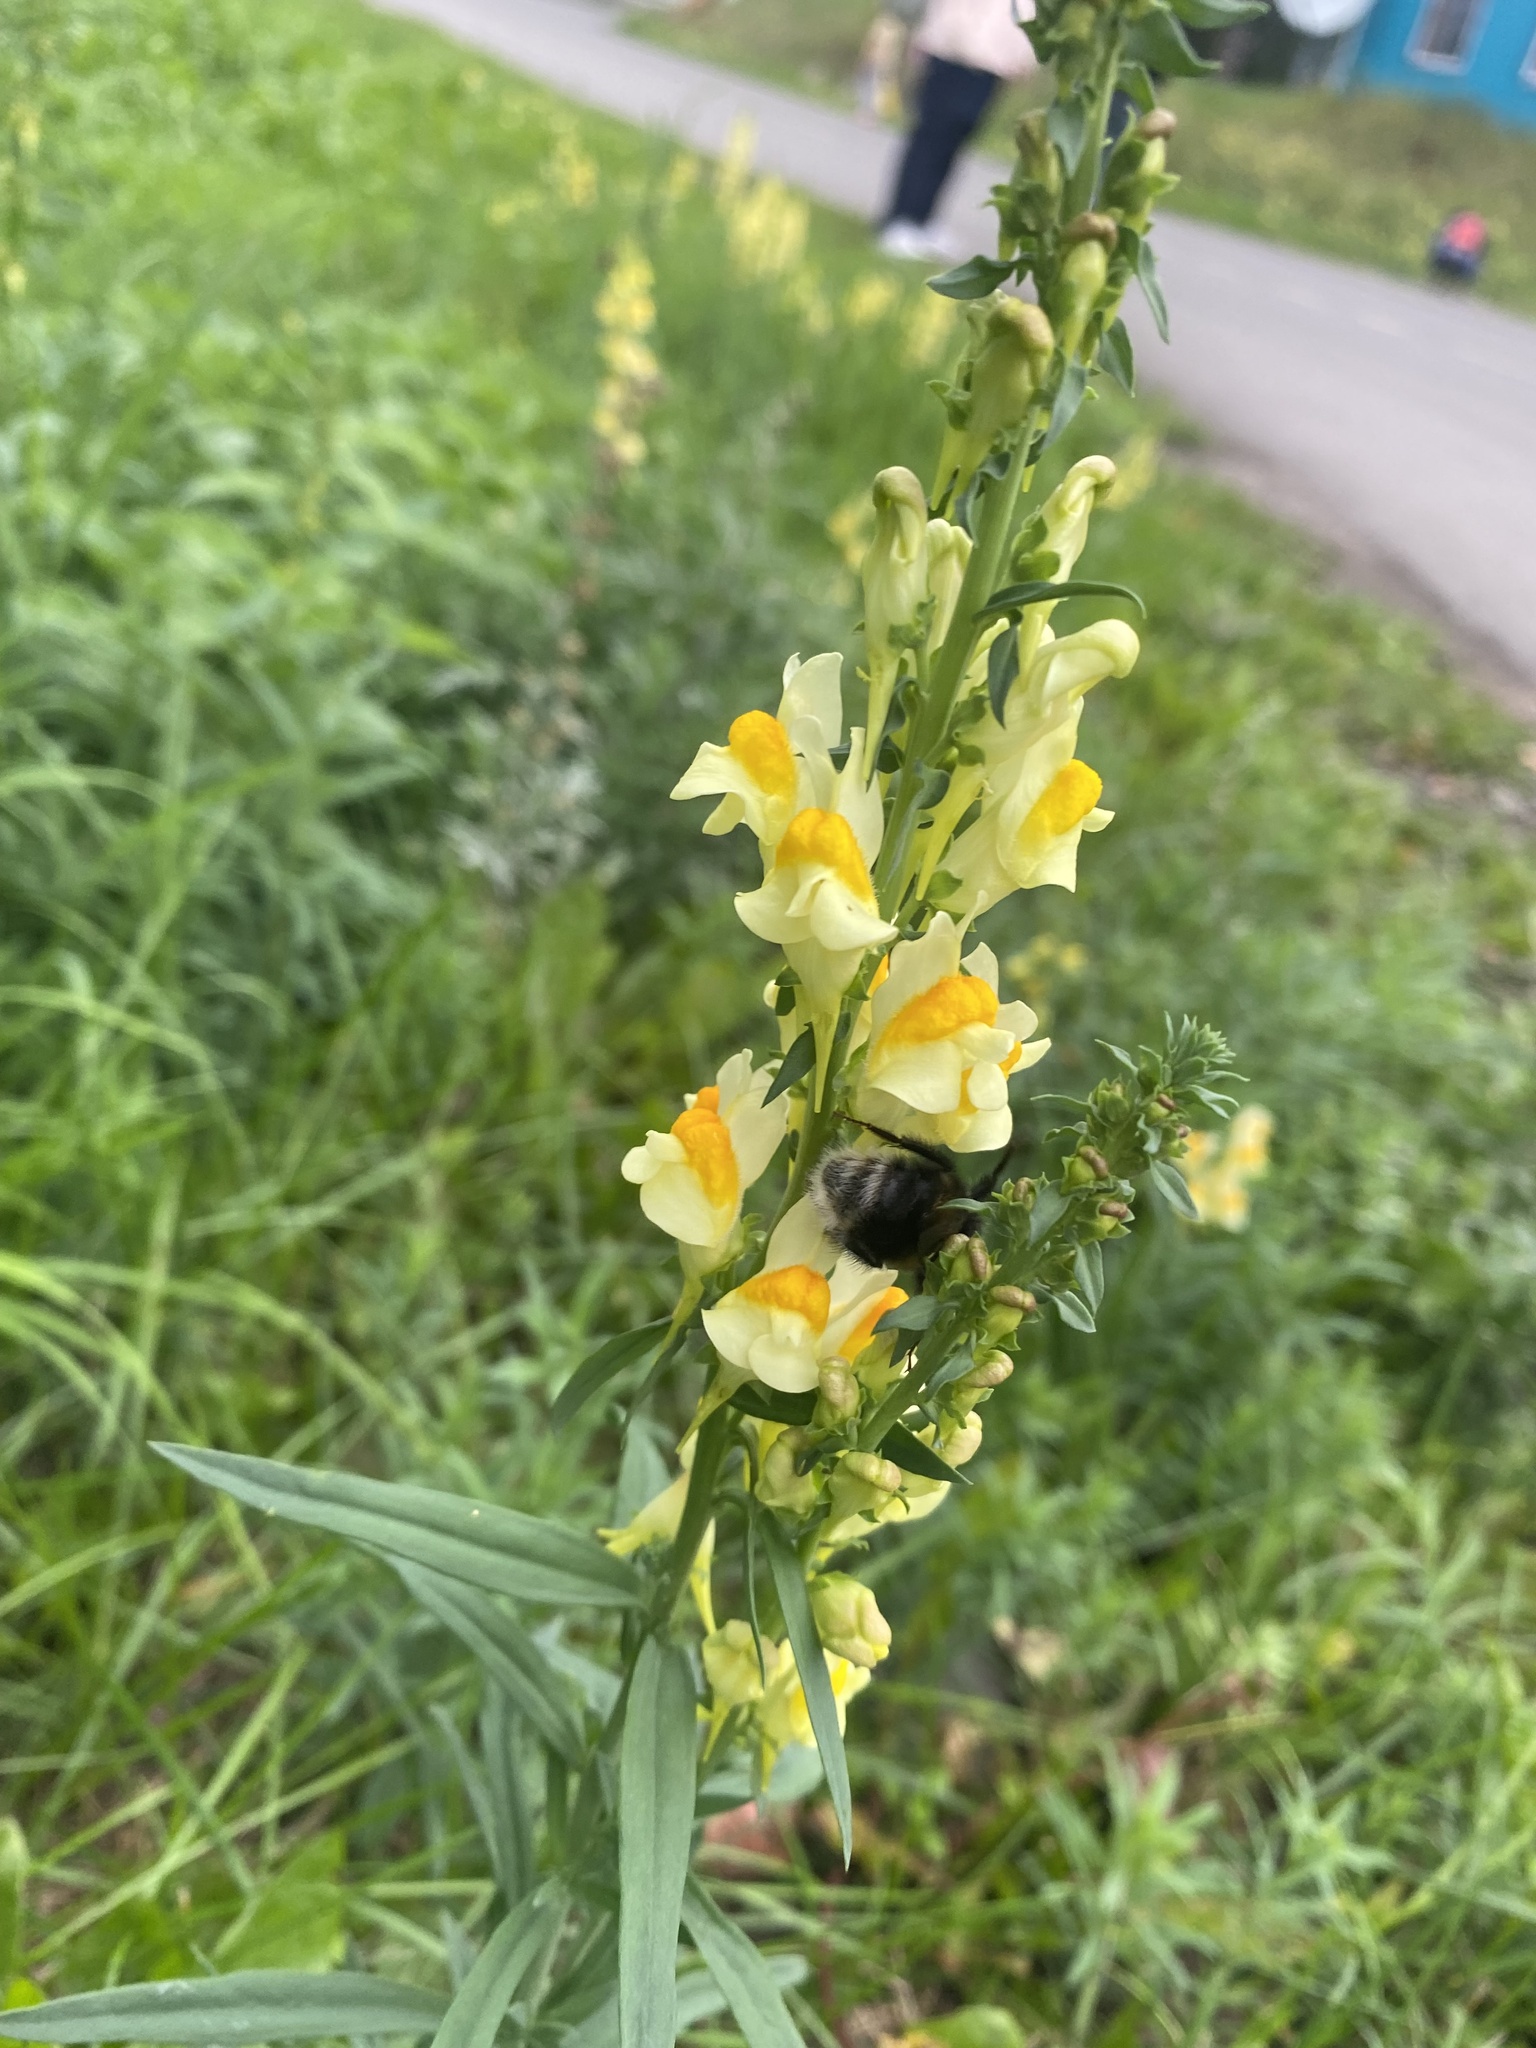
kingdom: Animalia
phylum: Arthropoda
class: Insecta
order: Hymenoptera
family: Apidae
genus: Bombus
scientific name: Bombus
